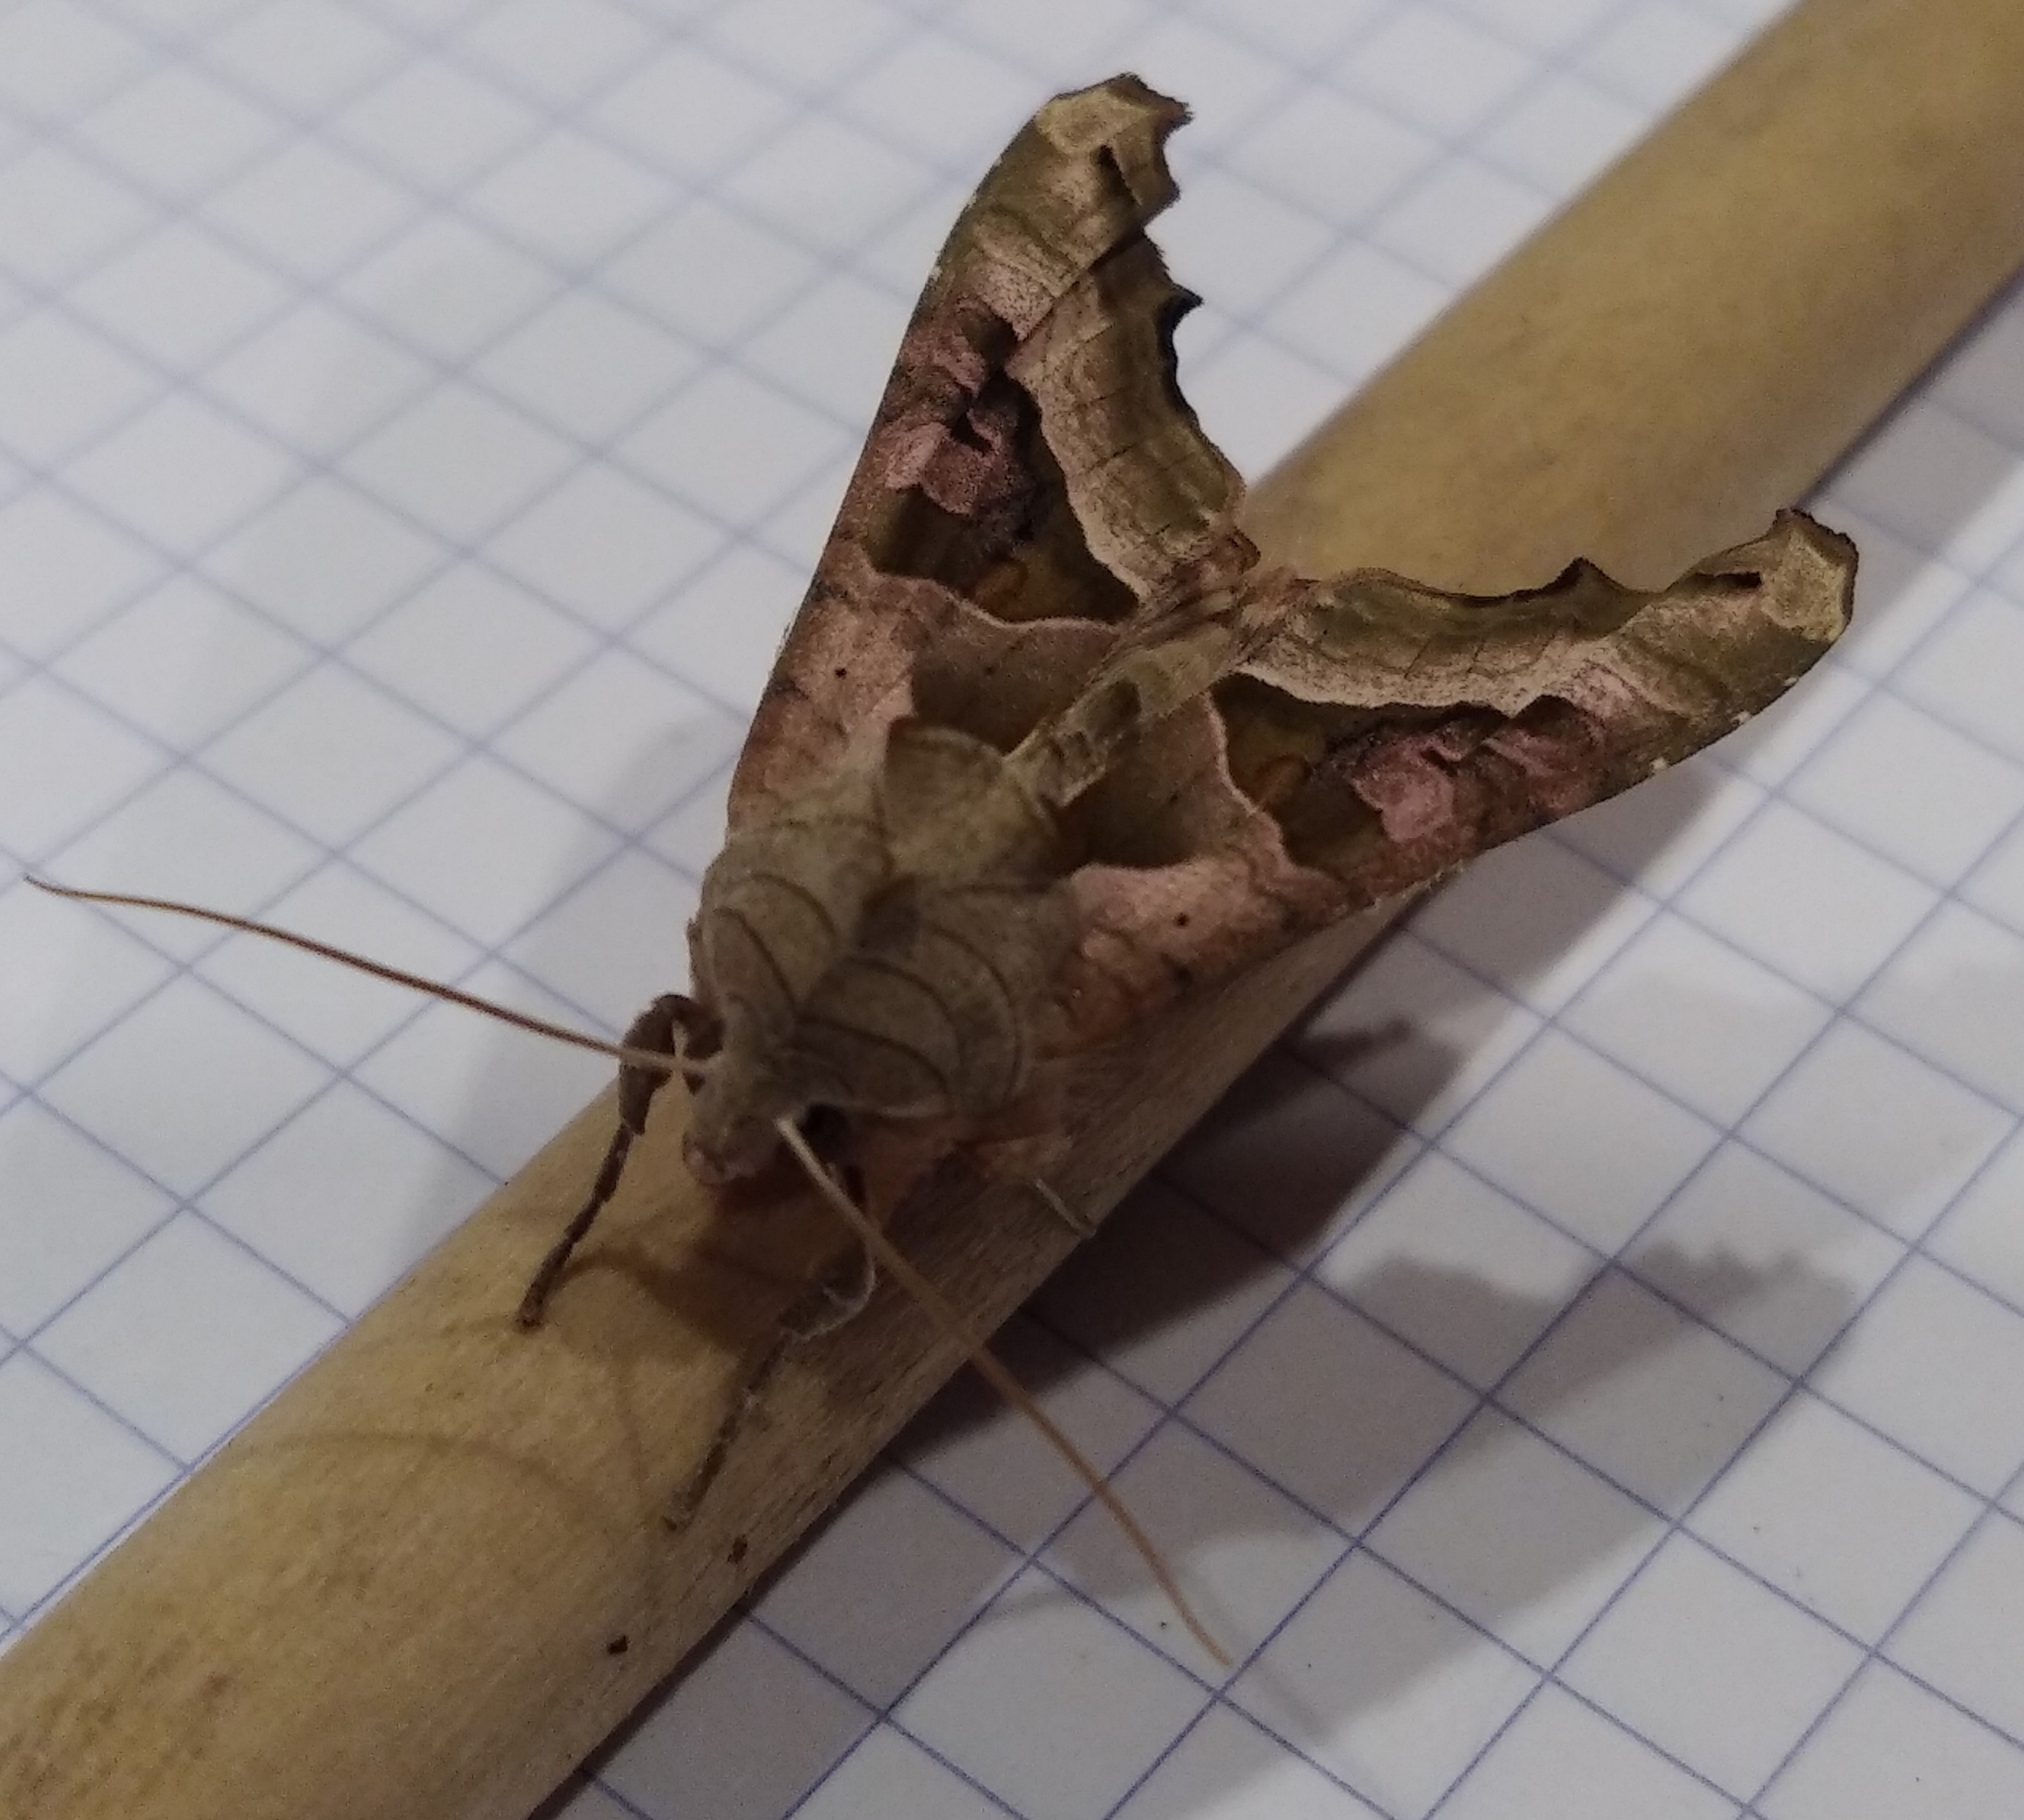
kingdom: Animalia
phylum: Arthropoda
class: Insecta
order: Lepidoptera
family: Noctuidae
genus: Phlogophora
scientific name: Phlogophora meticulosa
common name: Angle shades
